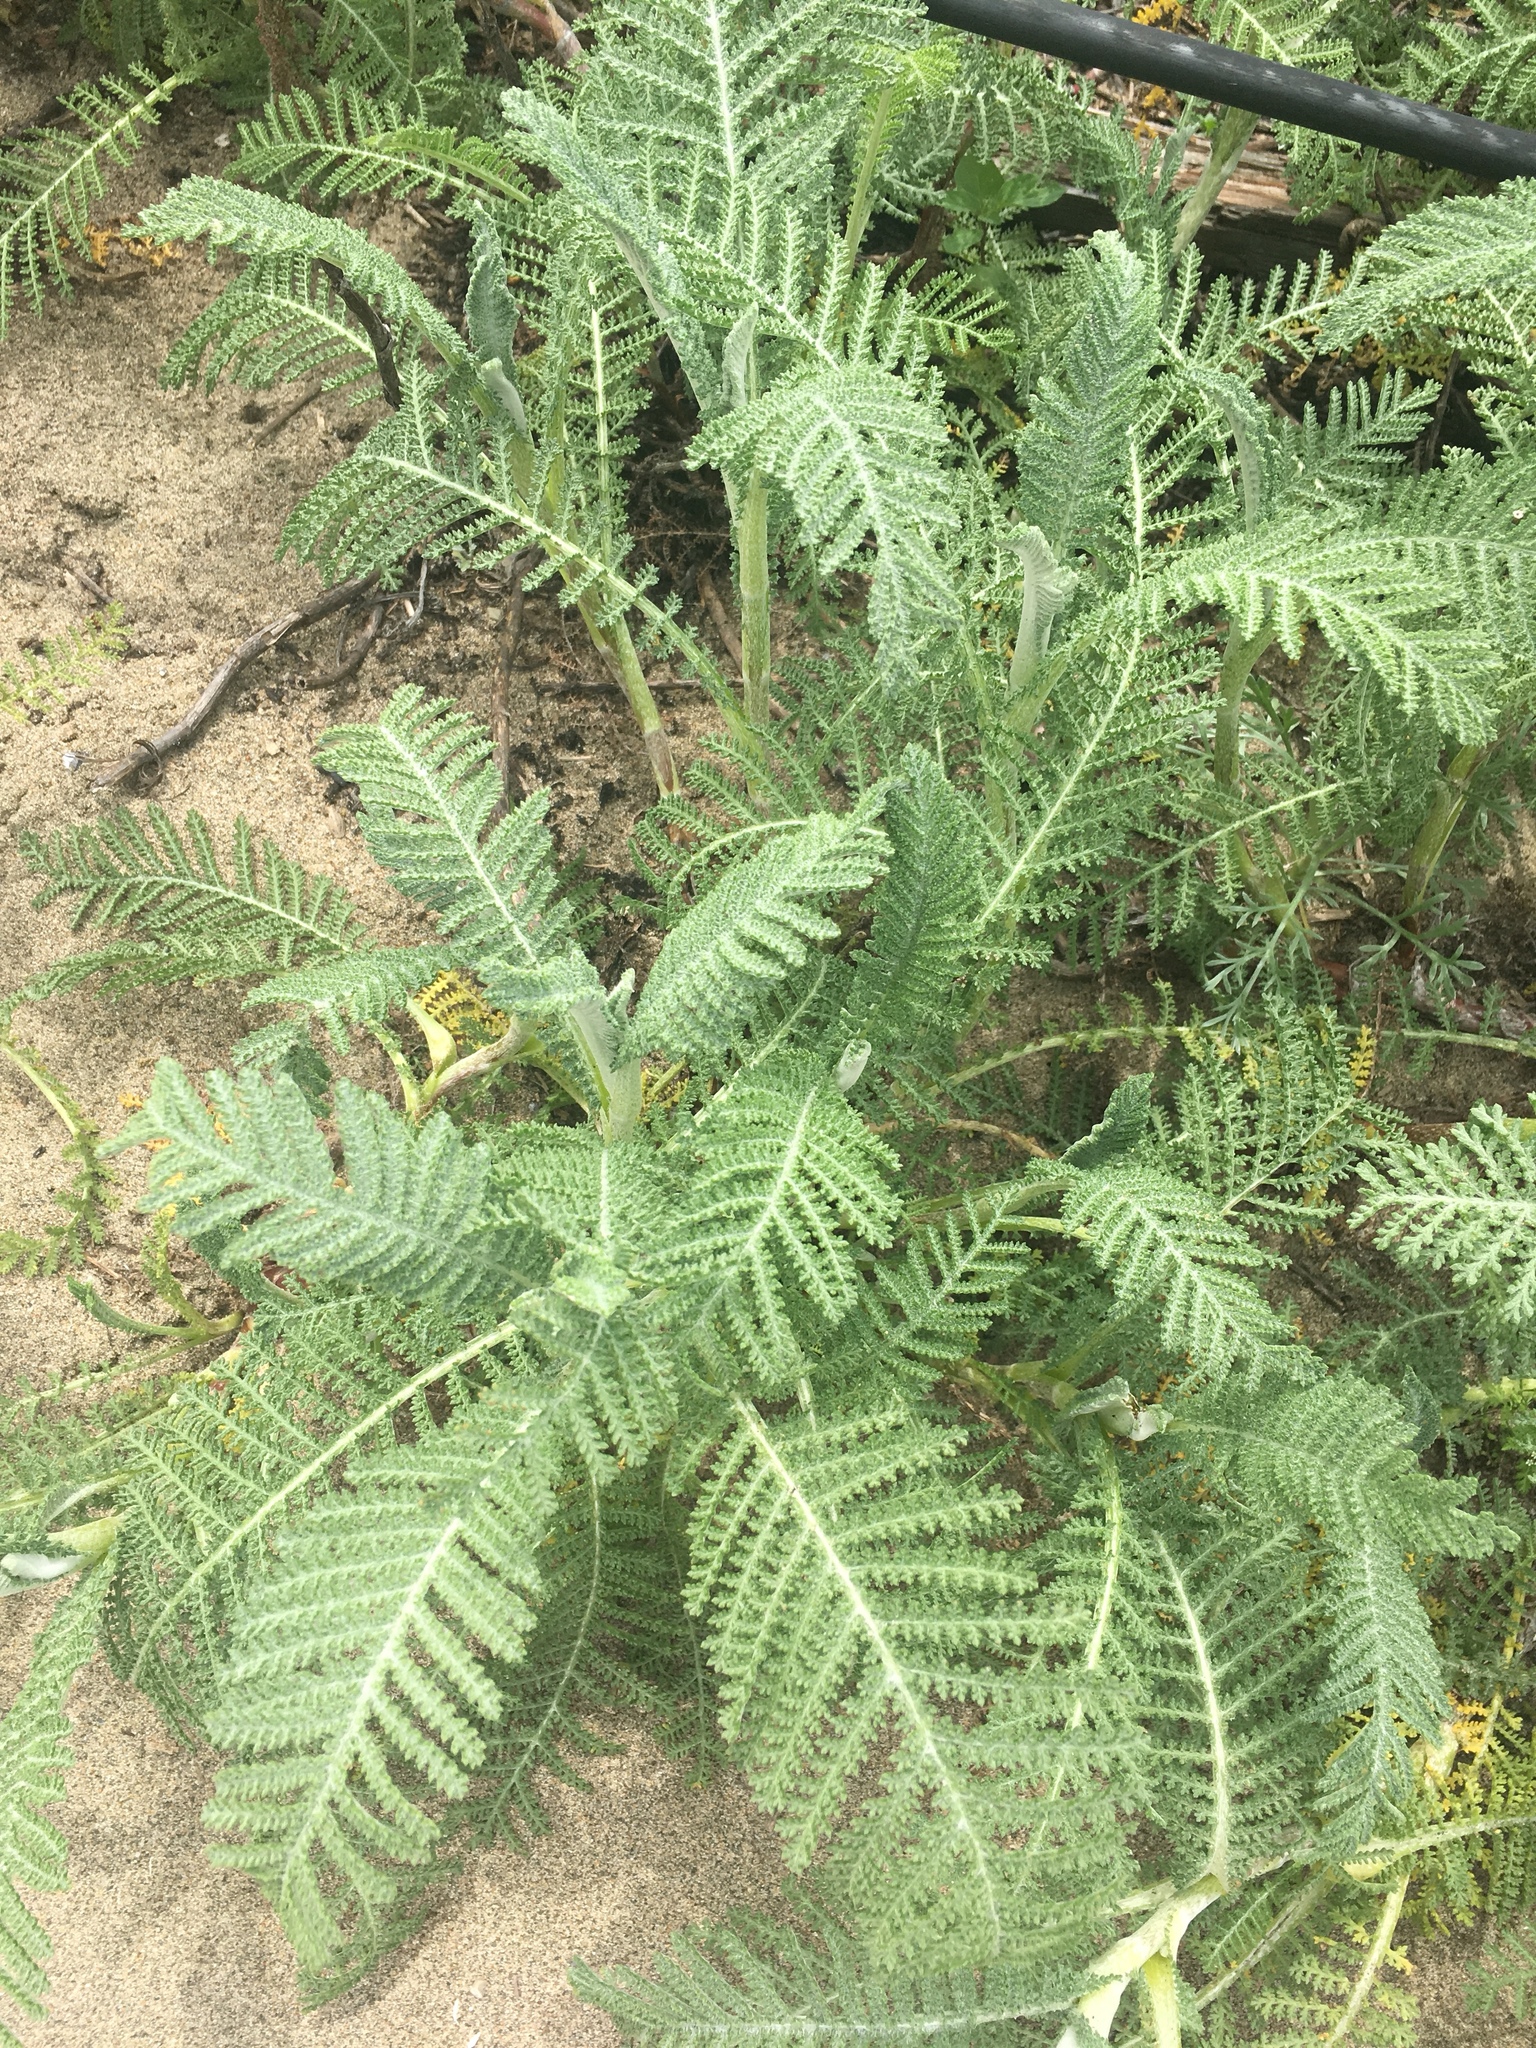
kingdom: Plantae
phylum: Tracheophyta
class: Magnoliopsida
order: Asterales
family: Asteraceae
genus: Tanacetum
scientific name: Tanacetum bipinnatum
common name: Dwarf tansy
